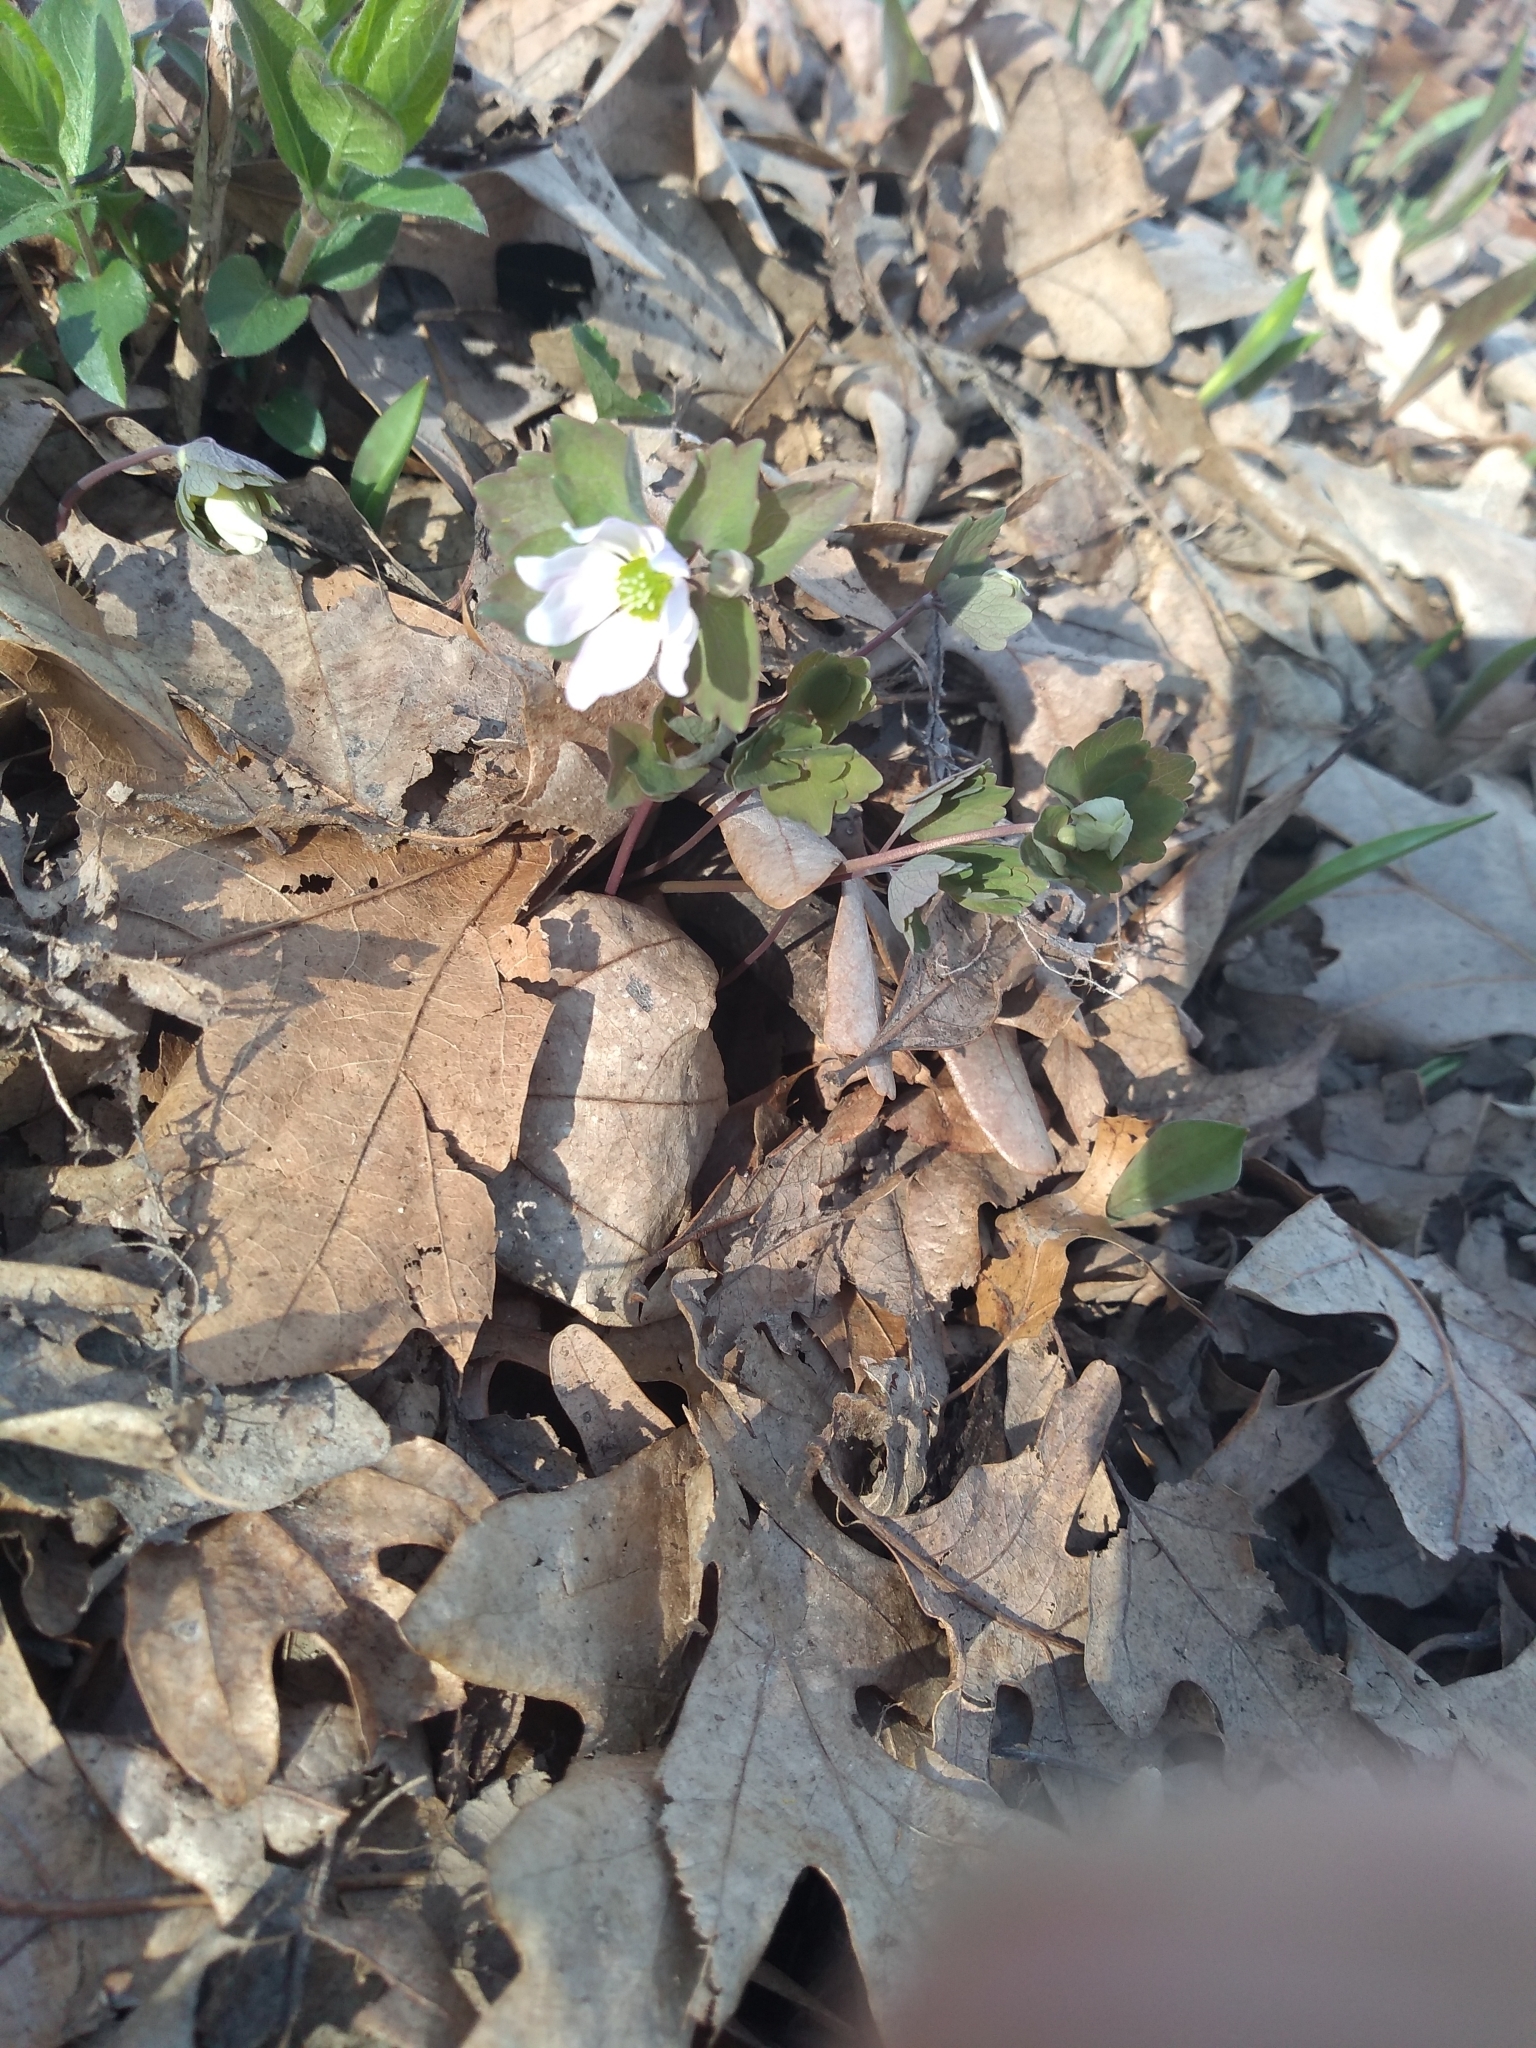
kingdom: Plantae
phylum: Tracheophyta
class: Magnoliopsida
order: Ranunculales
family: Ranunculaceae
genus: Thalictrum
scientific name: Thalictrum thalictroides
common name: Rue-anemone
